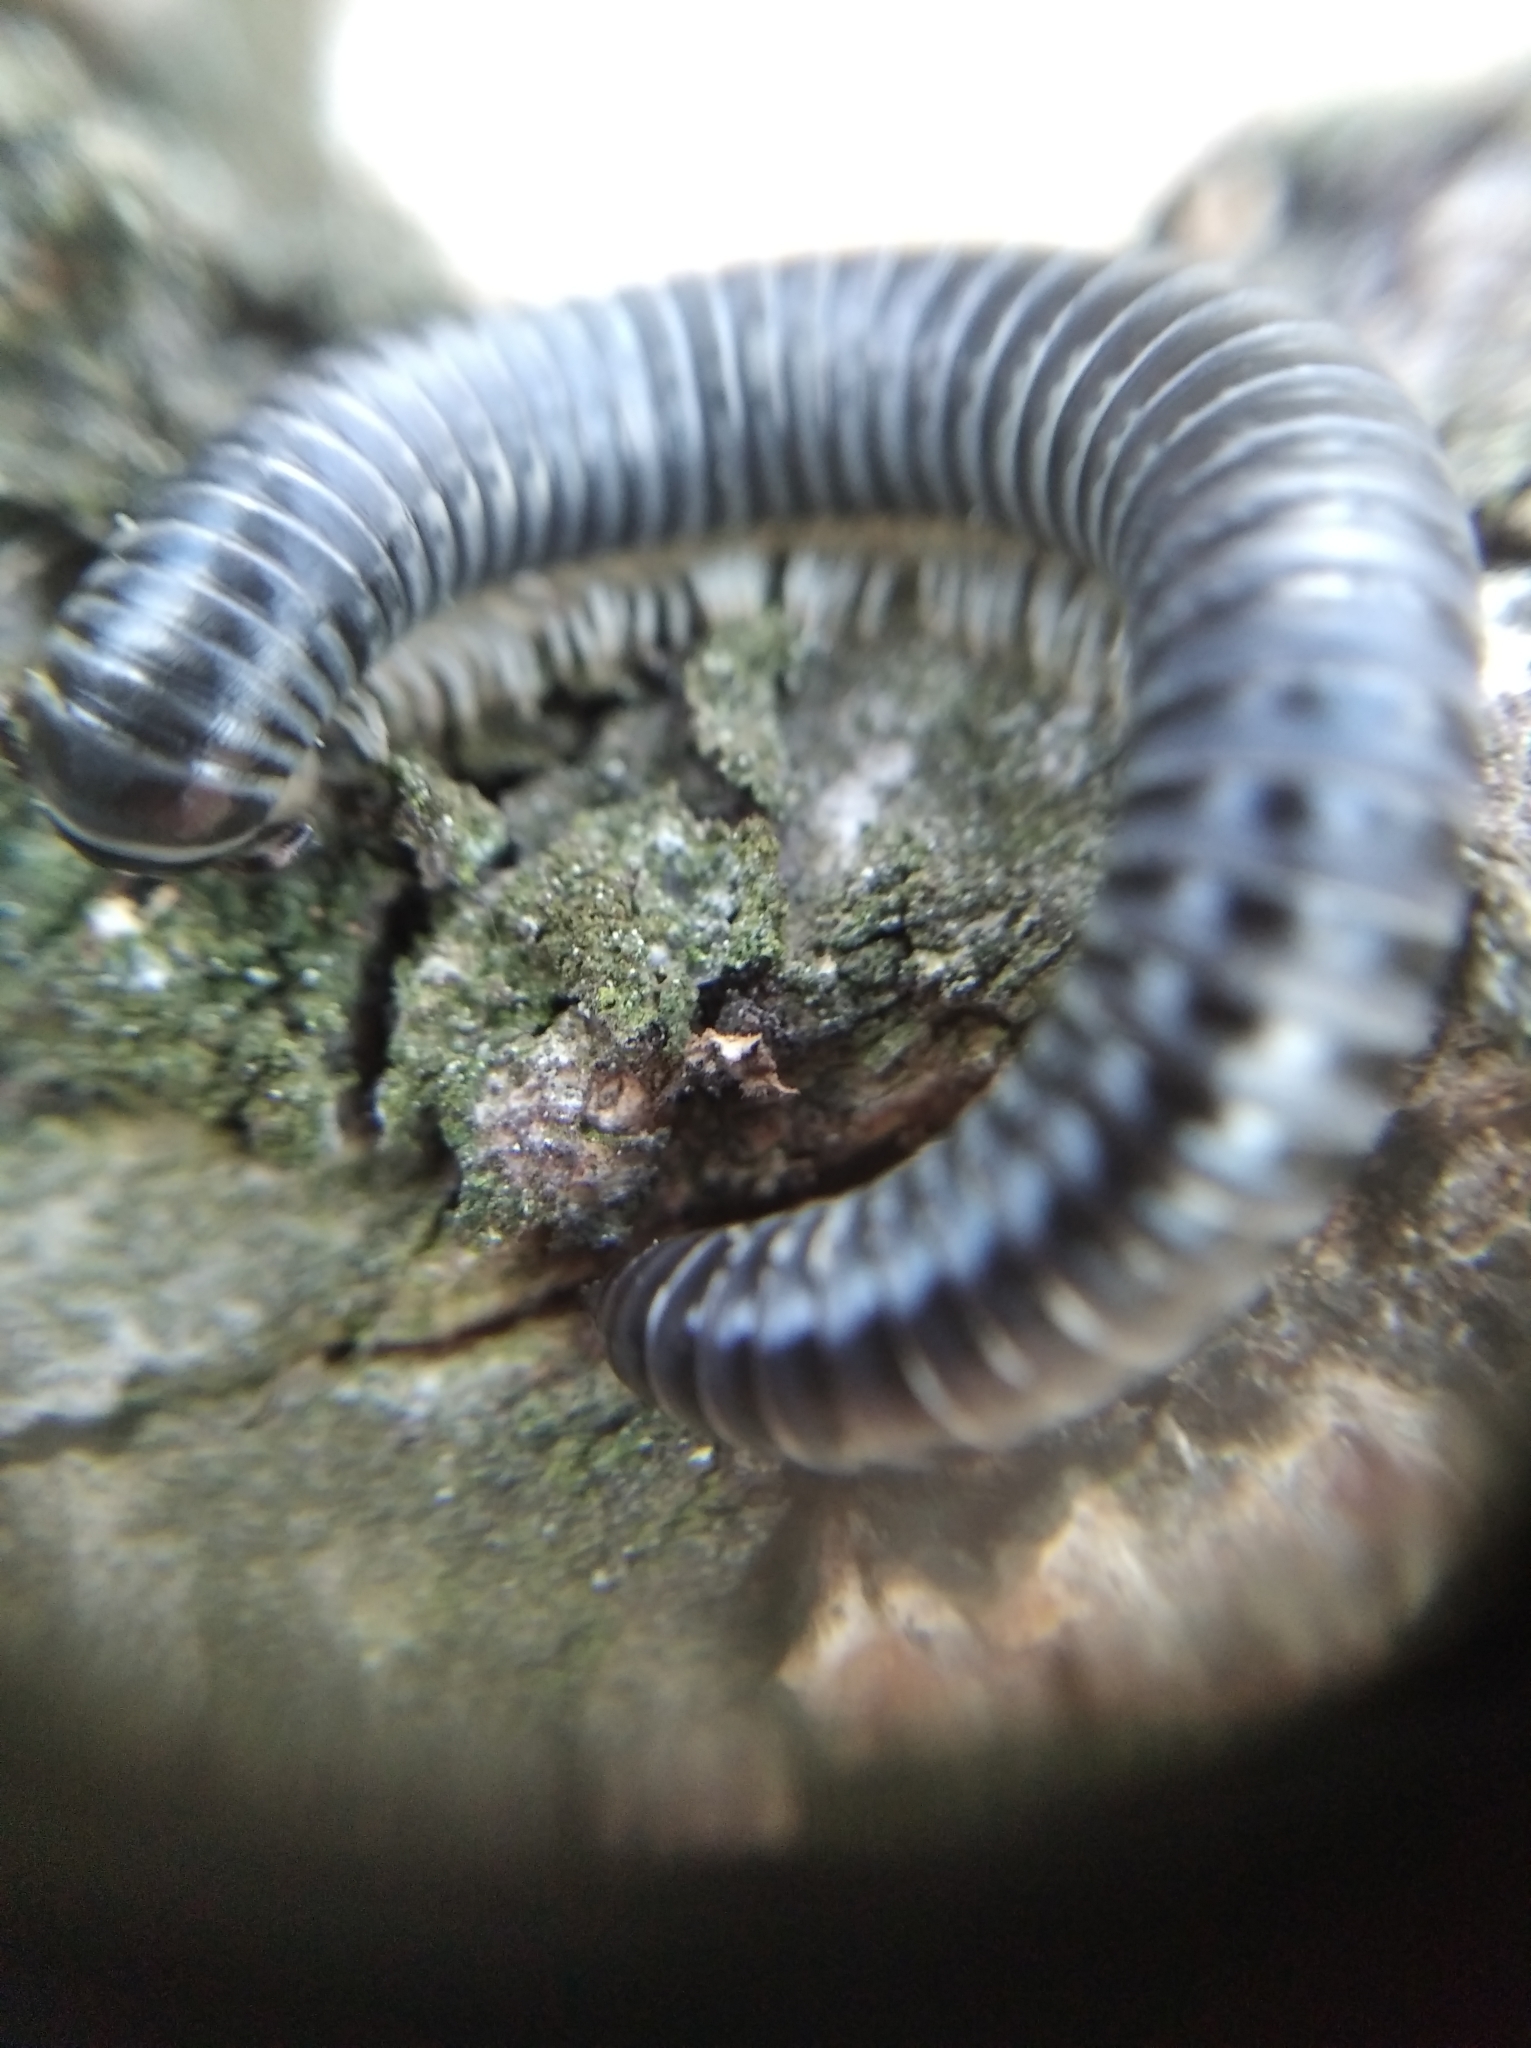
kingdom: Animalia
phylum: Arthropoda
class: Diplopoda
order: Julida
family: Julidae
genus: Rossiulus
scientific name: Rossiulus kessleri
